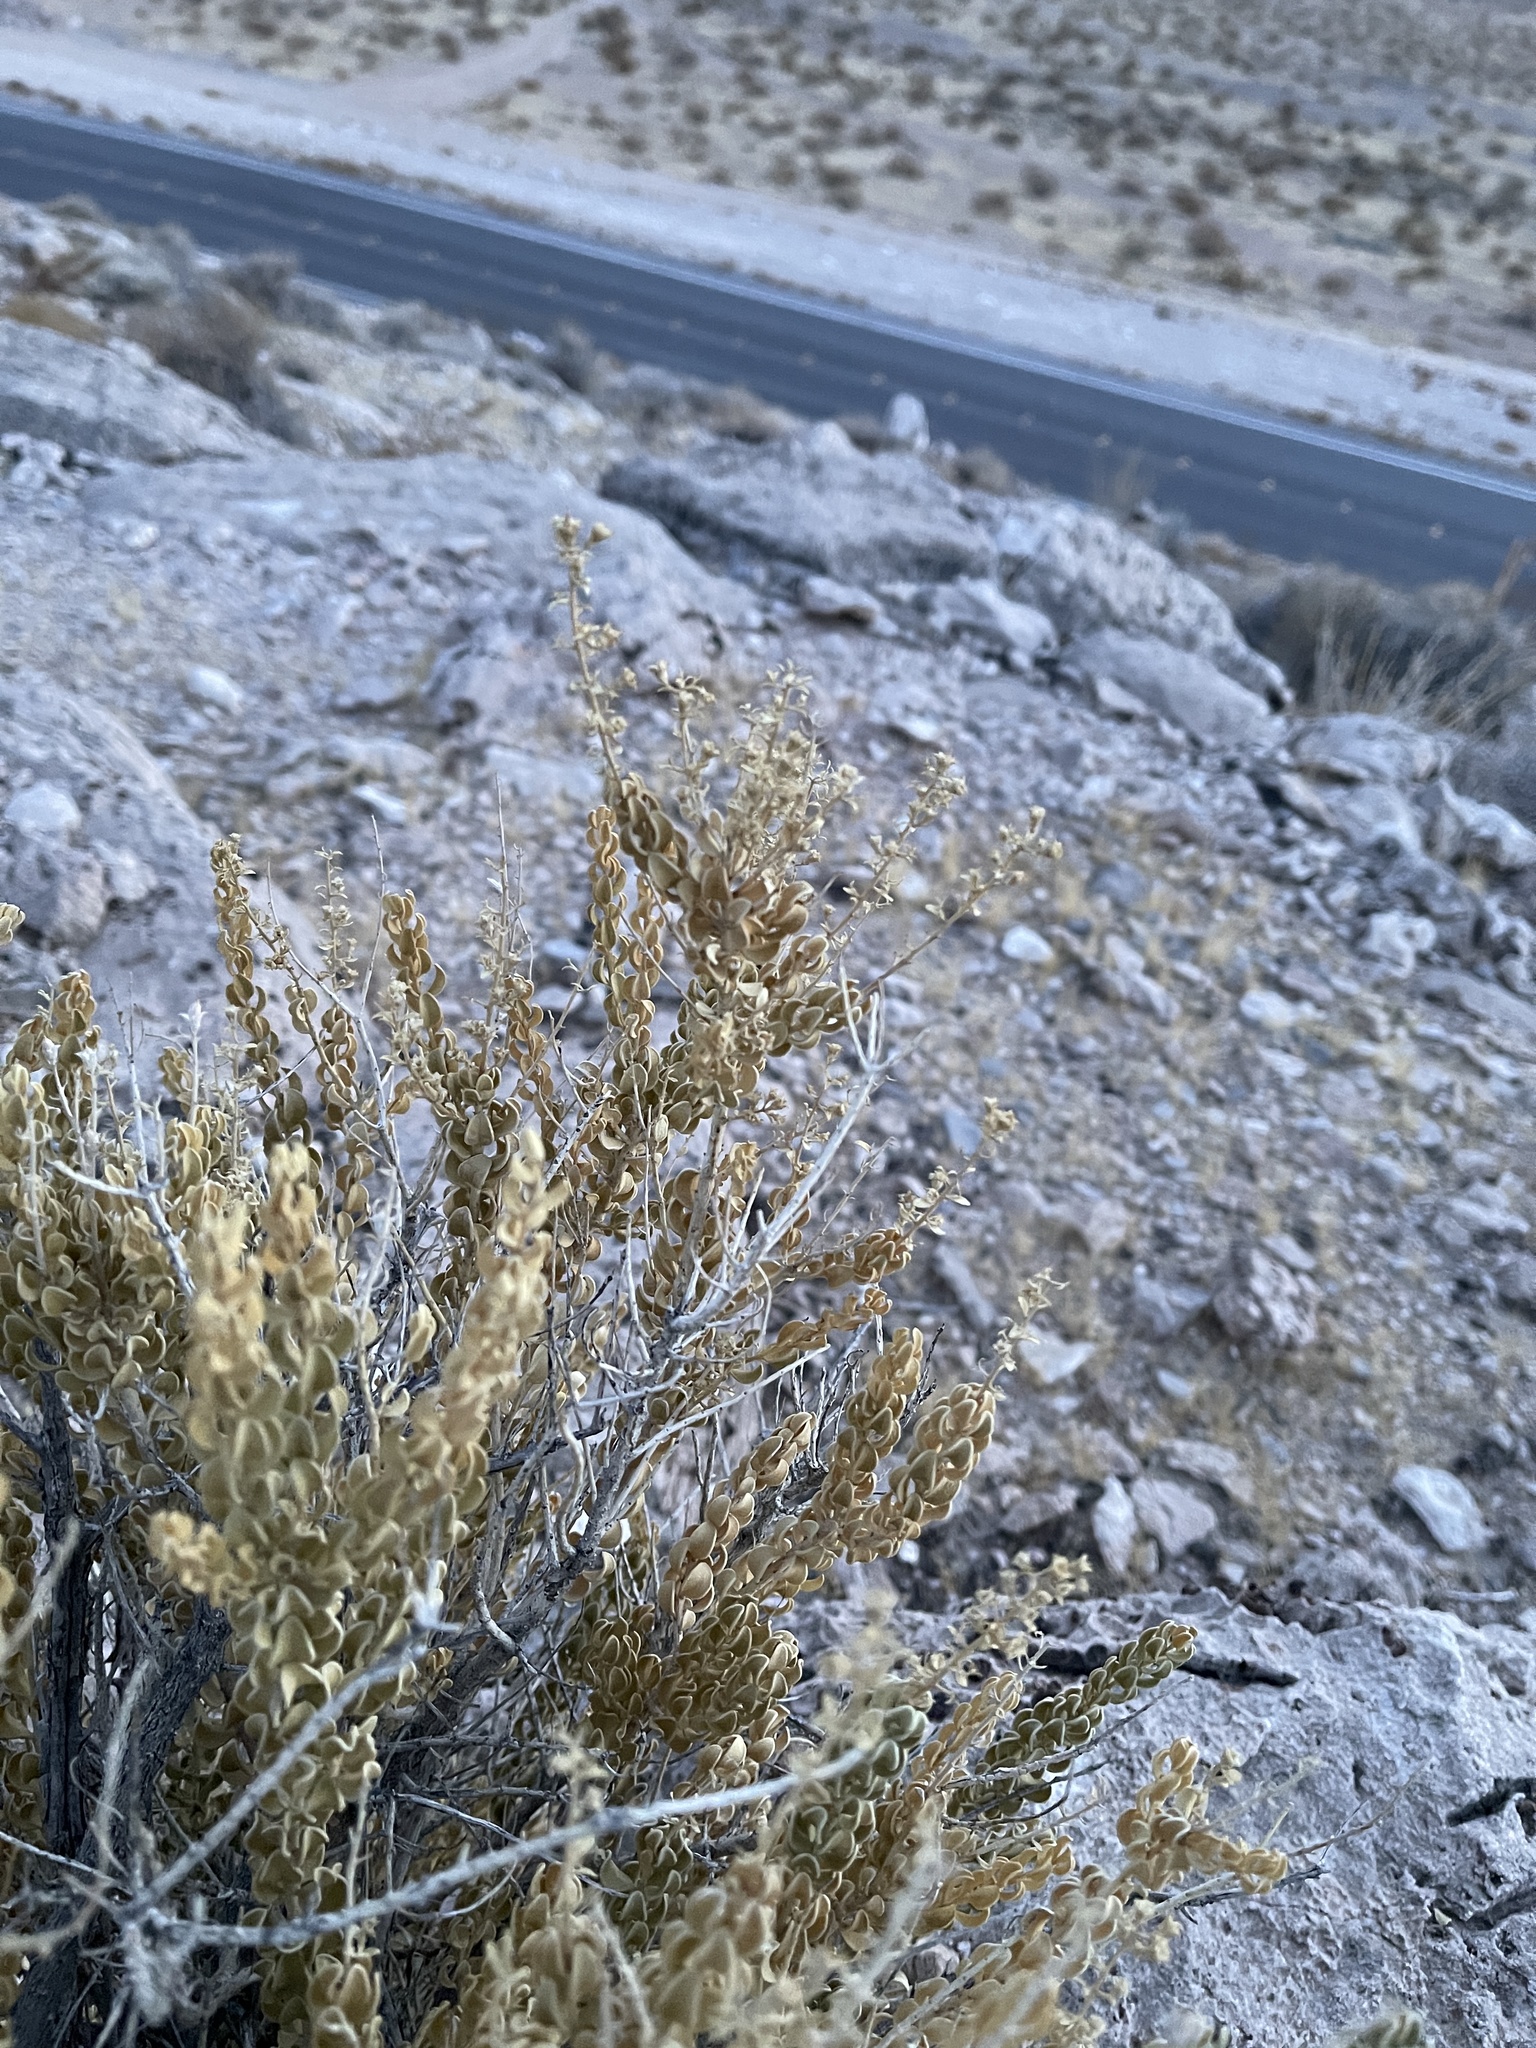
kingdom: Plantae
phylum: Tracheophyta
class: Magnoliopsida
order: Celastrales
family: Celastraceae
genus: Mortonia
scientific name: Mortonia utahensis
